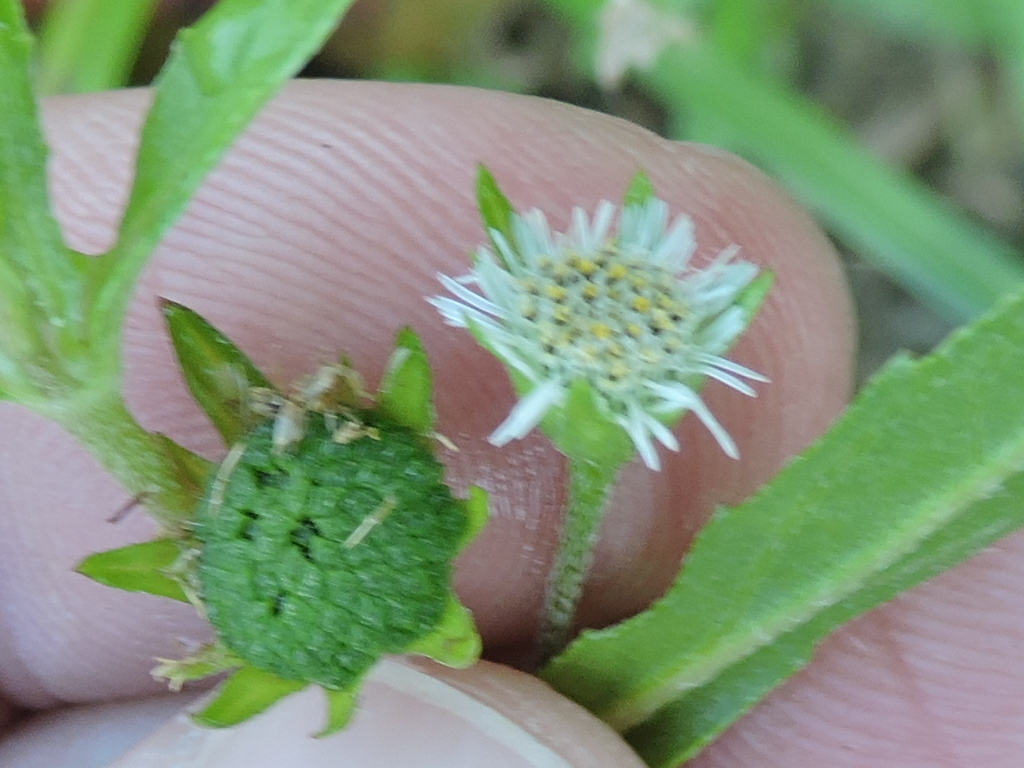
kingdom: Plantae
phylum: Tracheophyta
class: Magnoliopsida
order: Asterales
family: Asteraceae
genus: Eclipta
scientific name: Eclipta prostrata
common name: False daisy
